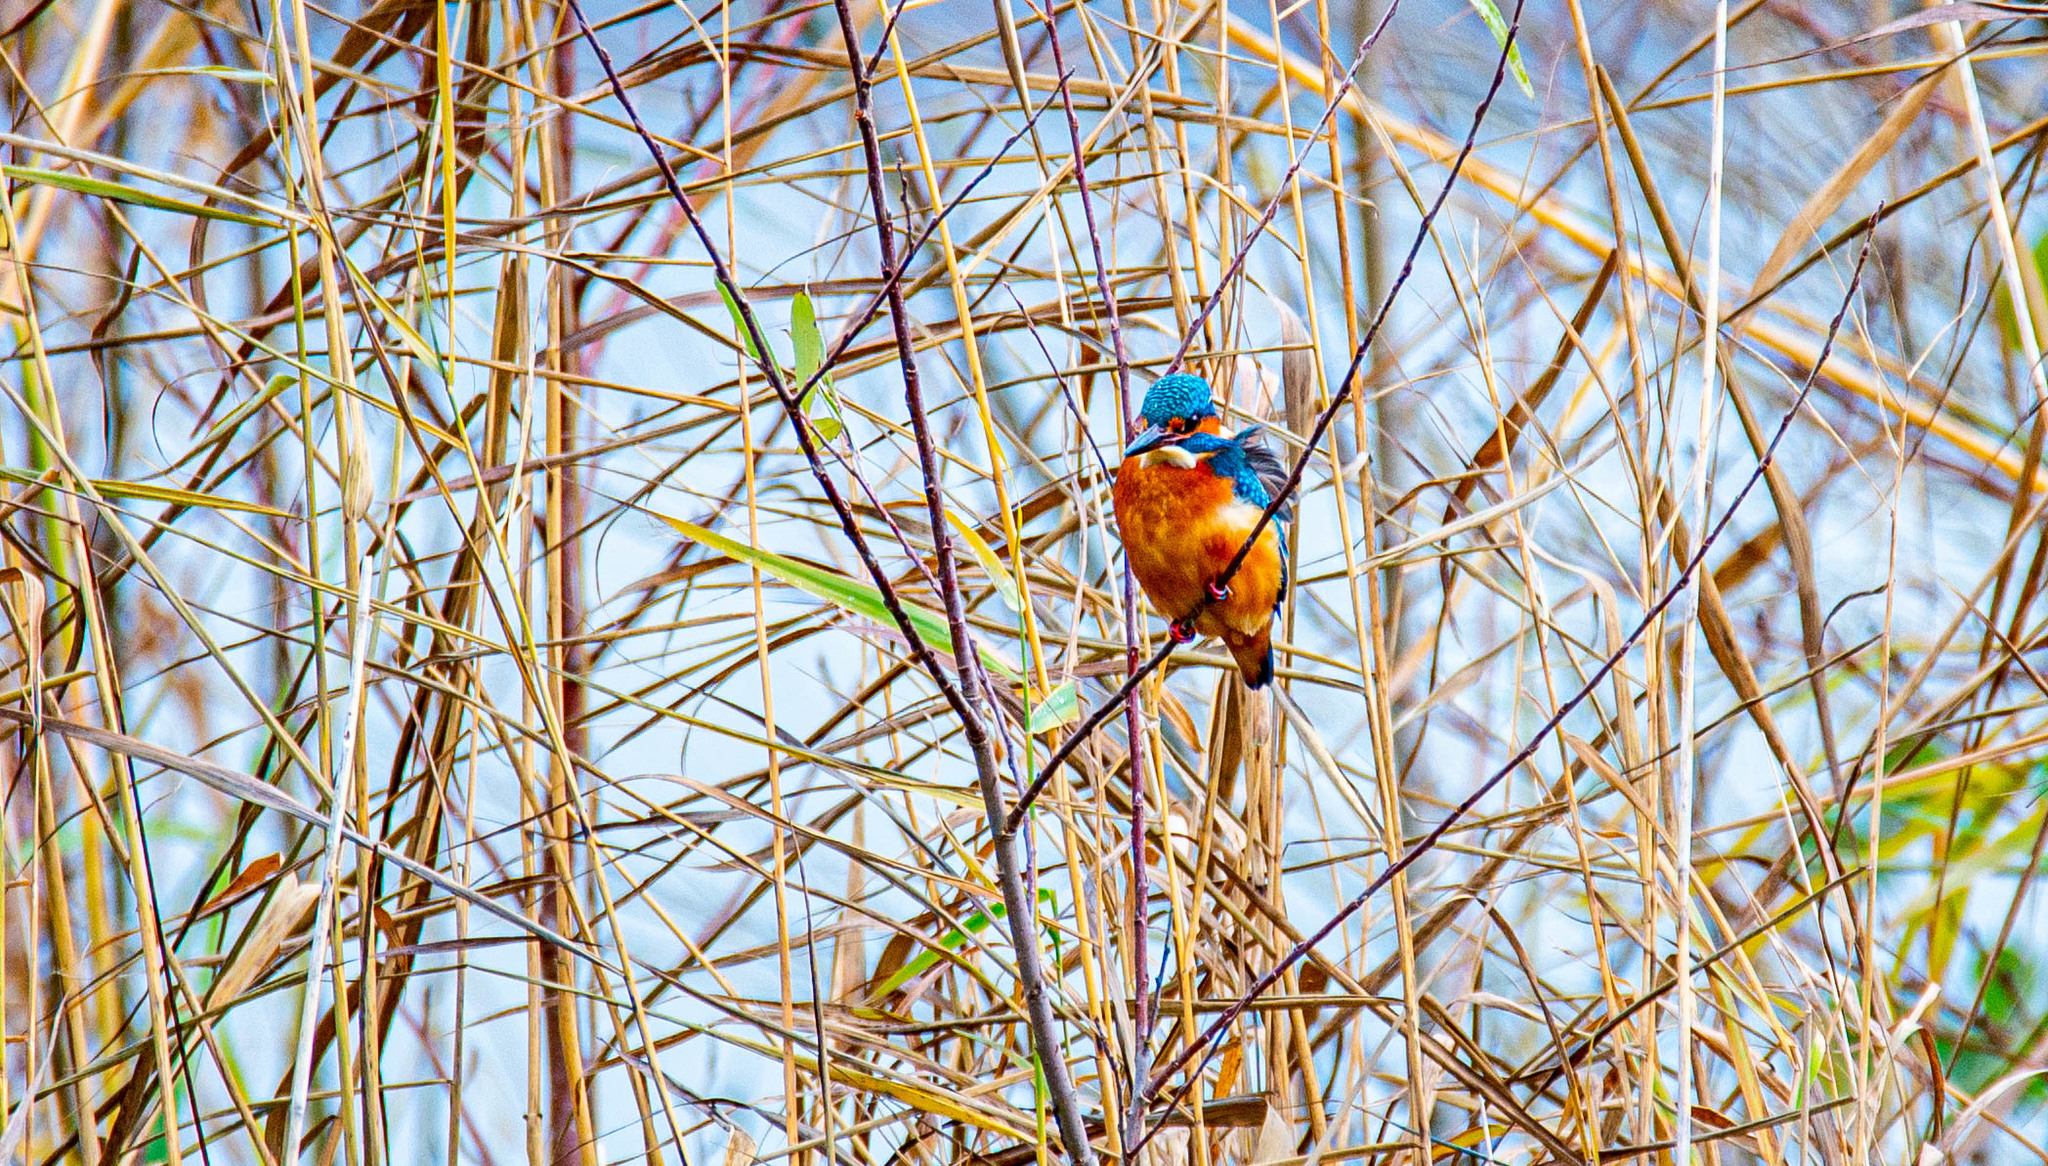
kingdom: Animalia
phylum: Chordata
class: Aves
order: Coraciiformes
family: Alcedinidae
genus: Alcedo
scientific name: Alcedo atthis
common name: Common kingfisher
